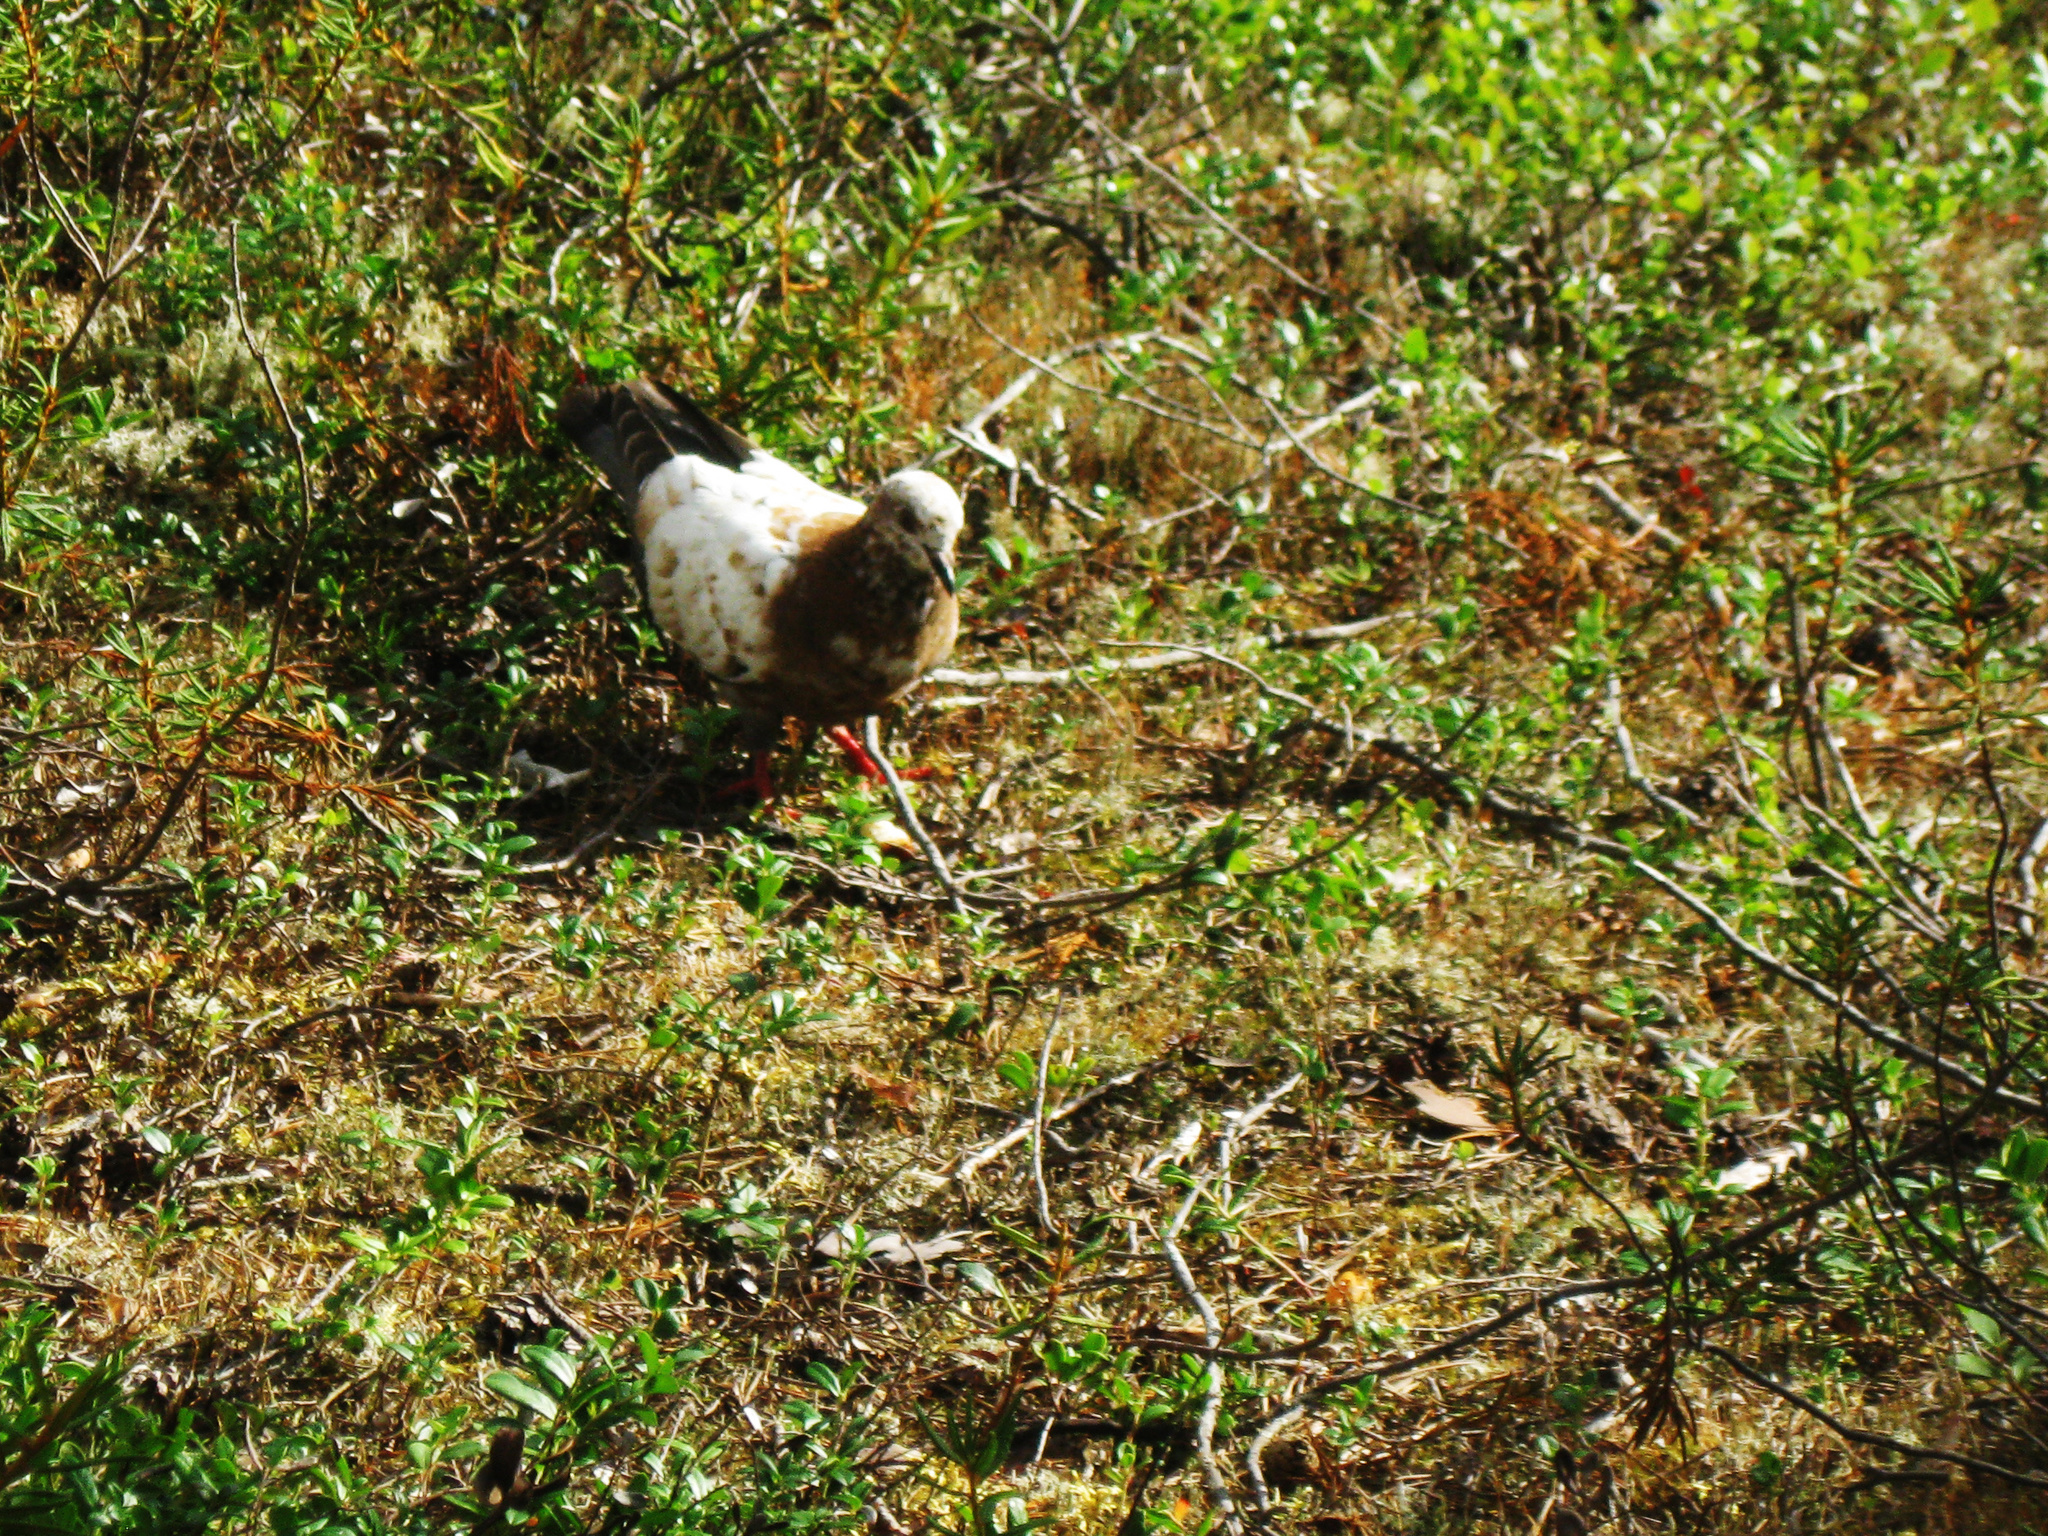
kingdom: Animalia
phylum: Chordata
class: Aves
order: Columbiformes
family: Columbidae
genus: Columba
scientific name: Columba livia
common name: Rock pigeon
